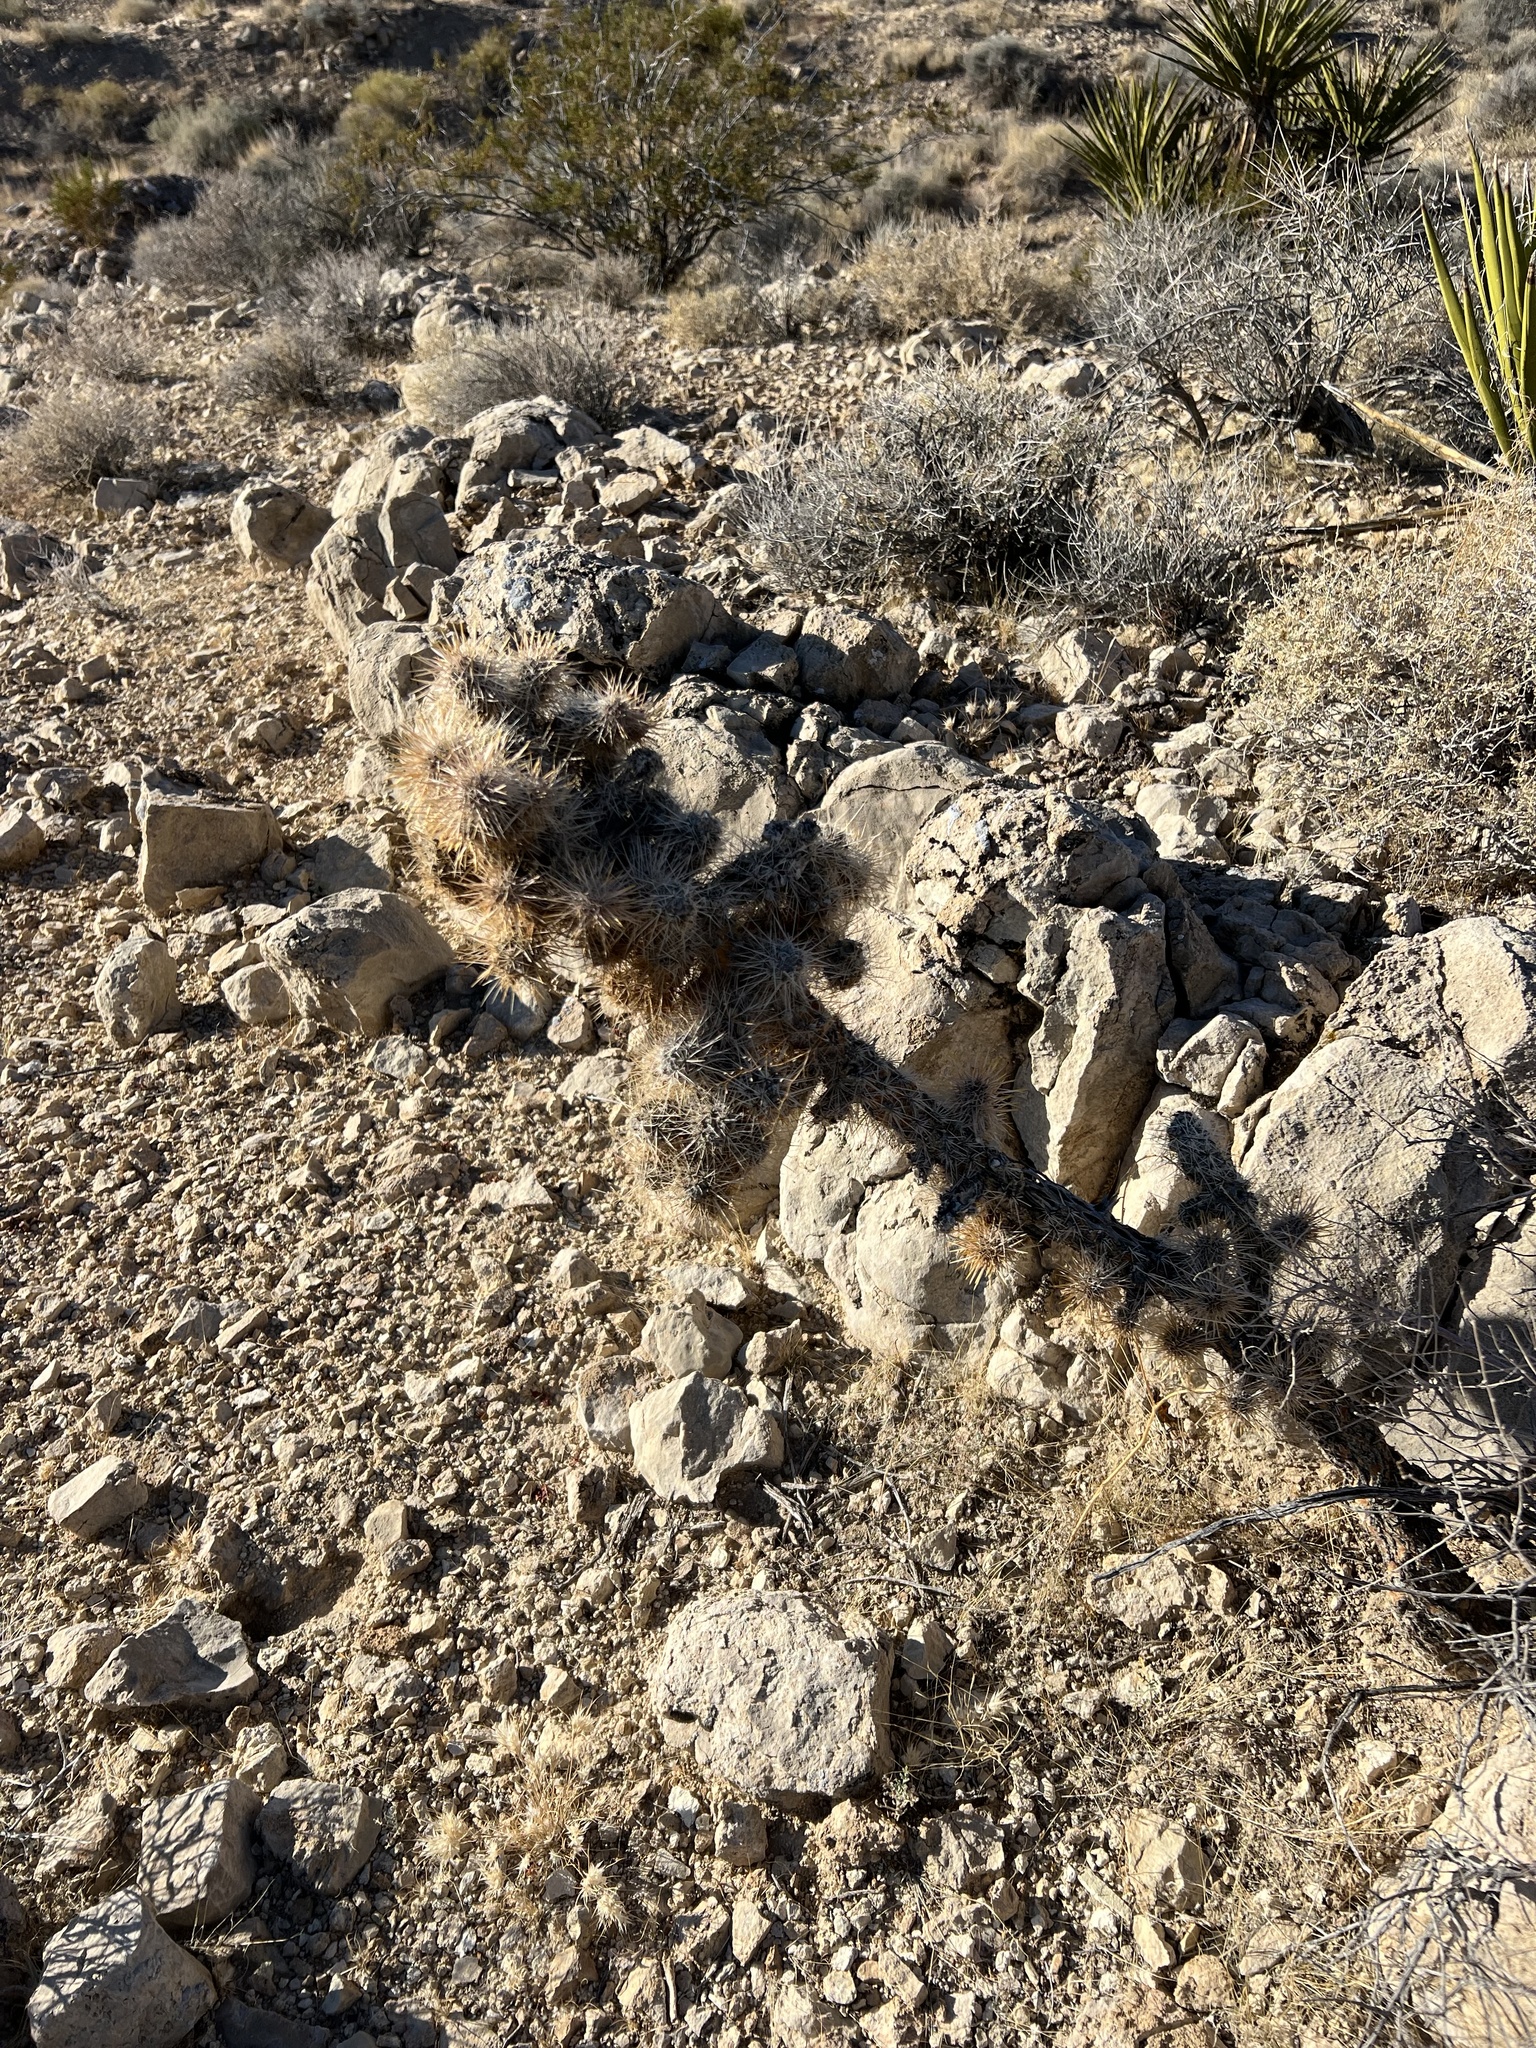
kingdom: Plantae
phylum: Tracheophyta
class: Magnoliopsida
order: Caryophyllales
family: Cactaceae
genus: Cylindropuntia
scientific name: Cylindropuntia echinocarpa
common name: Ground cholla
